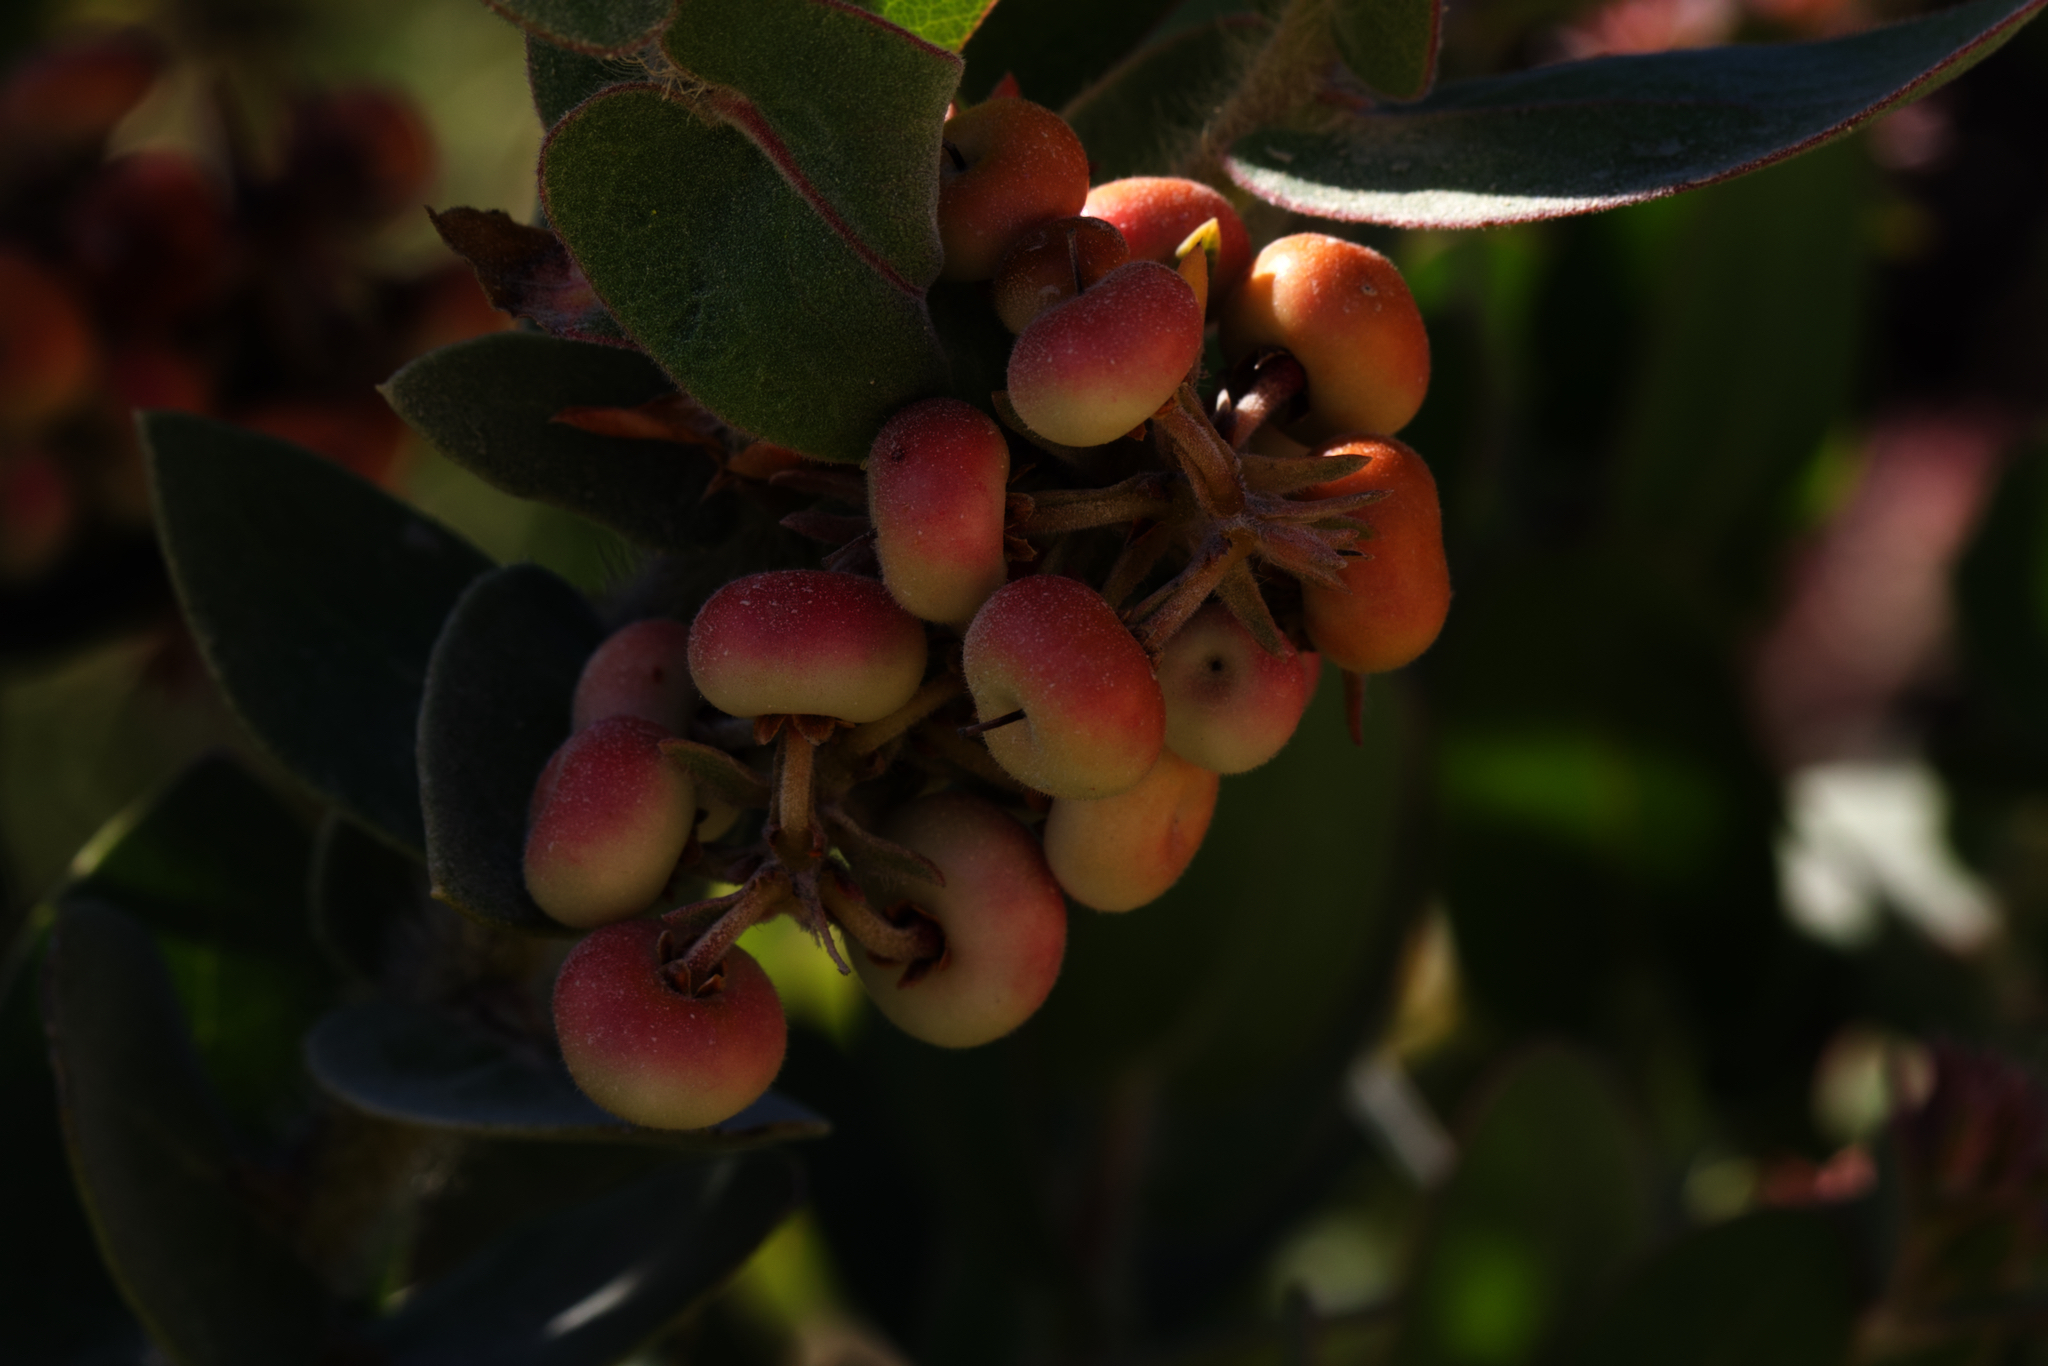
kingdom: Plantae
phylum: Tracheophyta
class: Magnoliopsida
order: Ericales
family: Ericaceae
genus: Arctostaphylos
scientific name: Arctostaphylos auriculata
